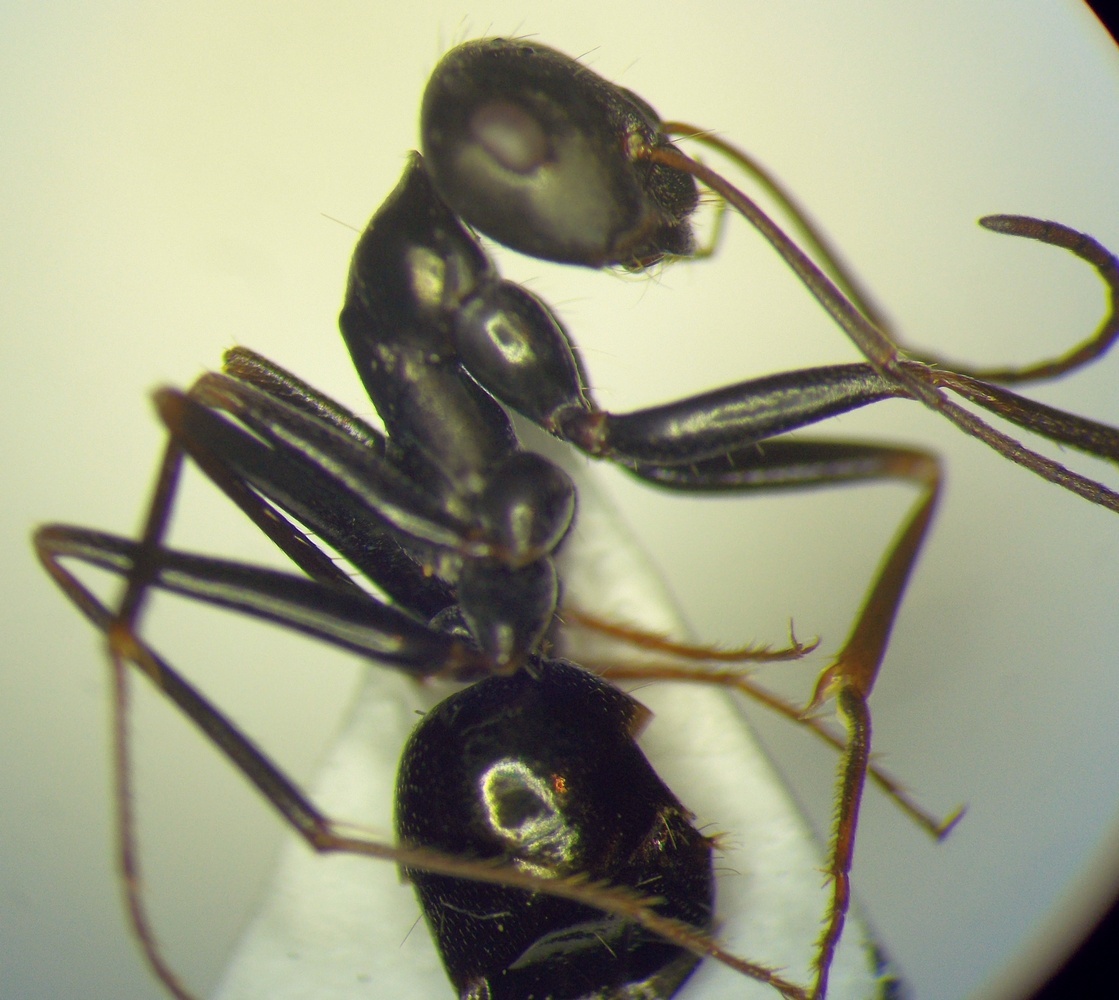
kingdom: Animalia
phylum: Arthropoda
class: Insecta
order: Hymenoptera
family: Formicidae
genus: Cataglyphis
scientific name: Cataglyphis aenescens
